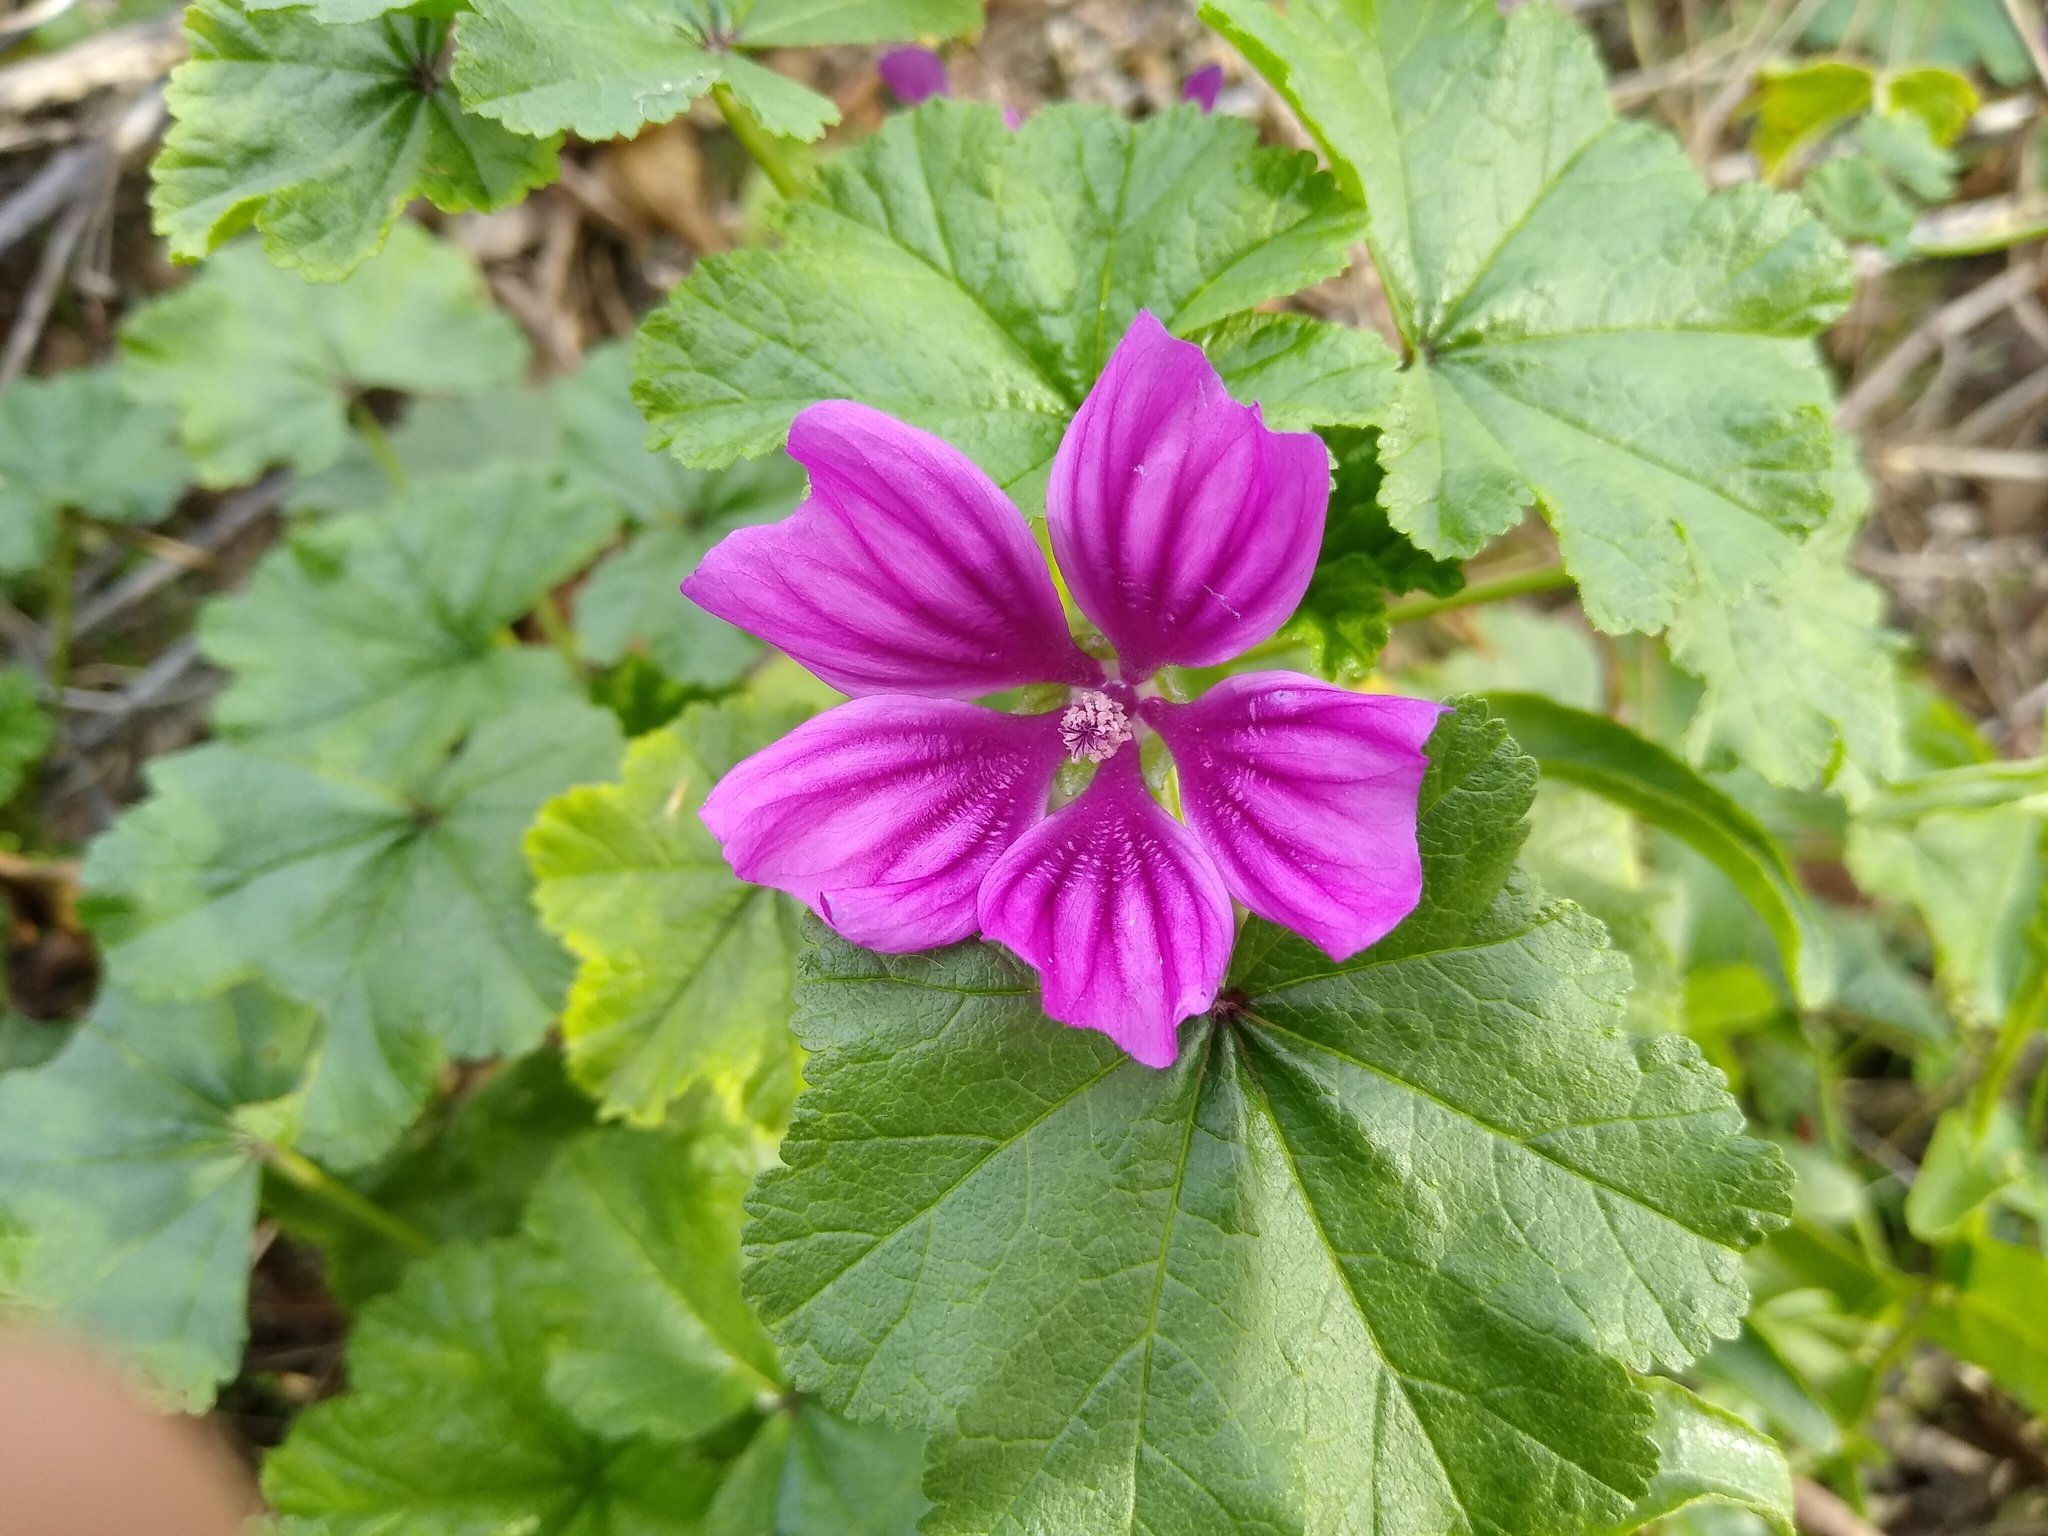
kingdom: Plantae
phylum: Tracheophyta
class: Magnoliopsida
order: Malvales
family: Malvaceae
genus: Malva
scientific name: Malva sylvestris
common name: Common mallow
